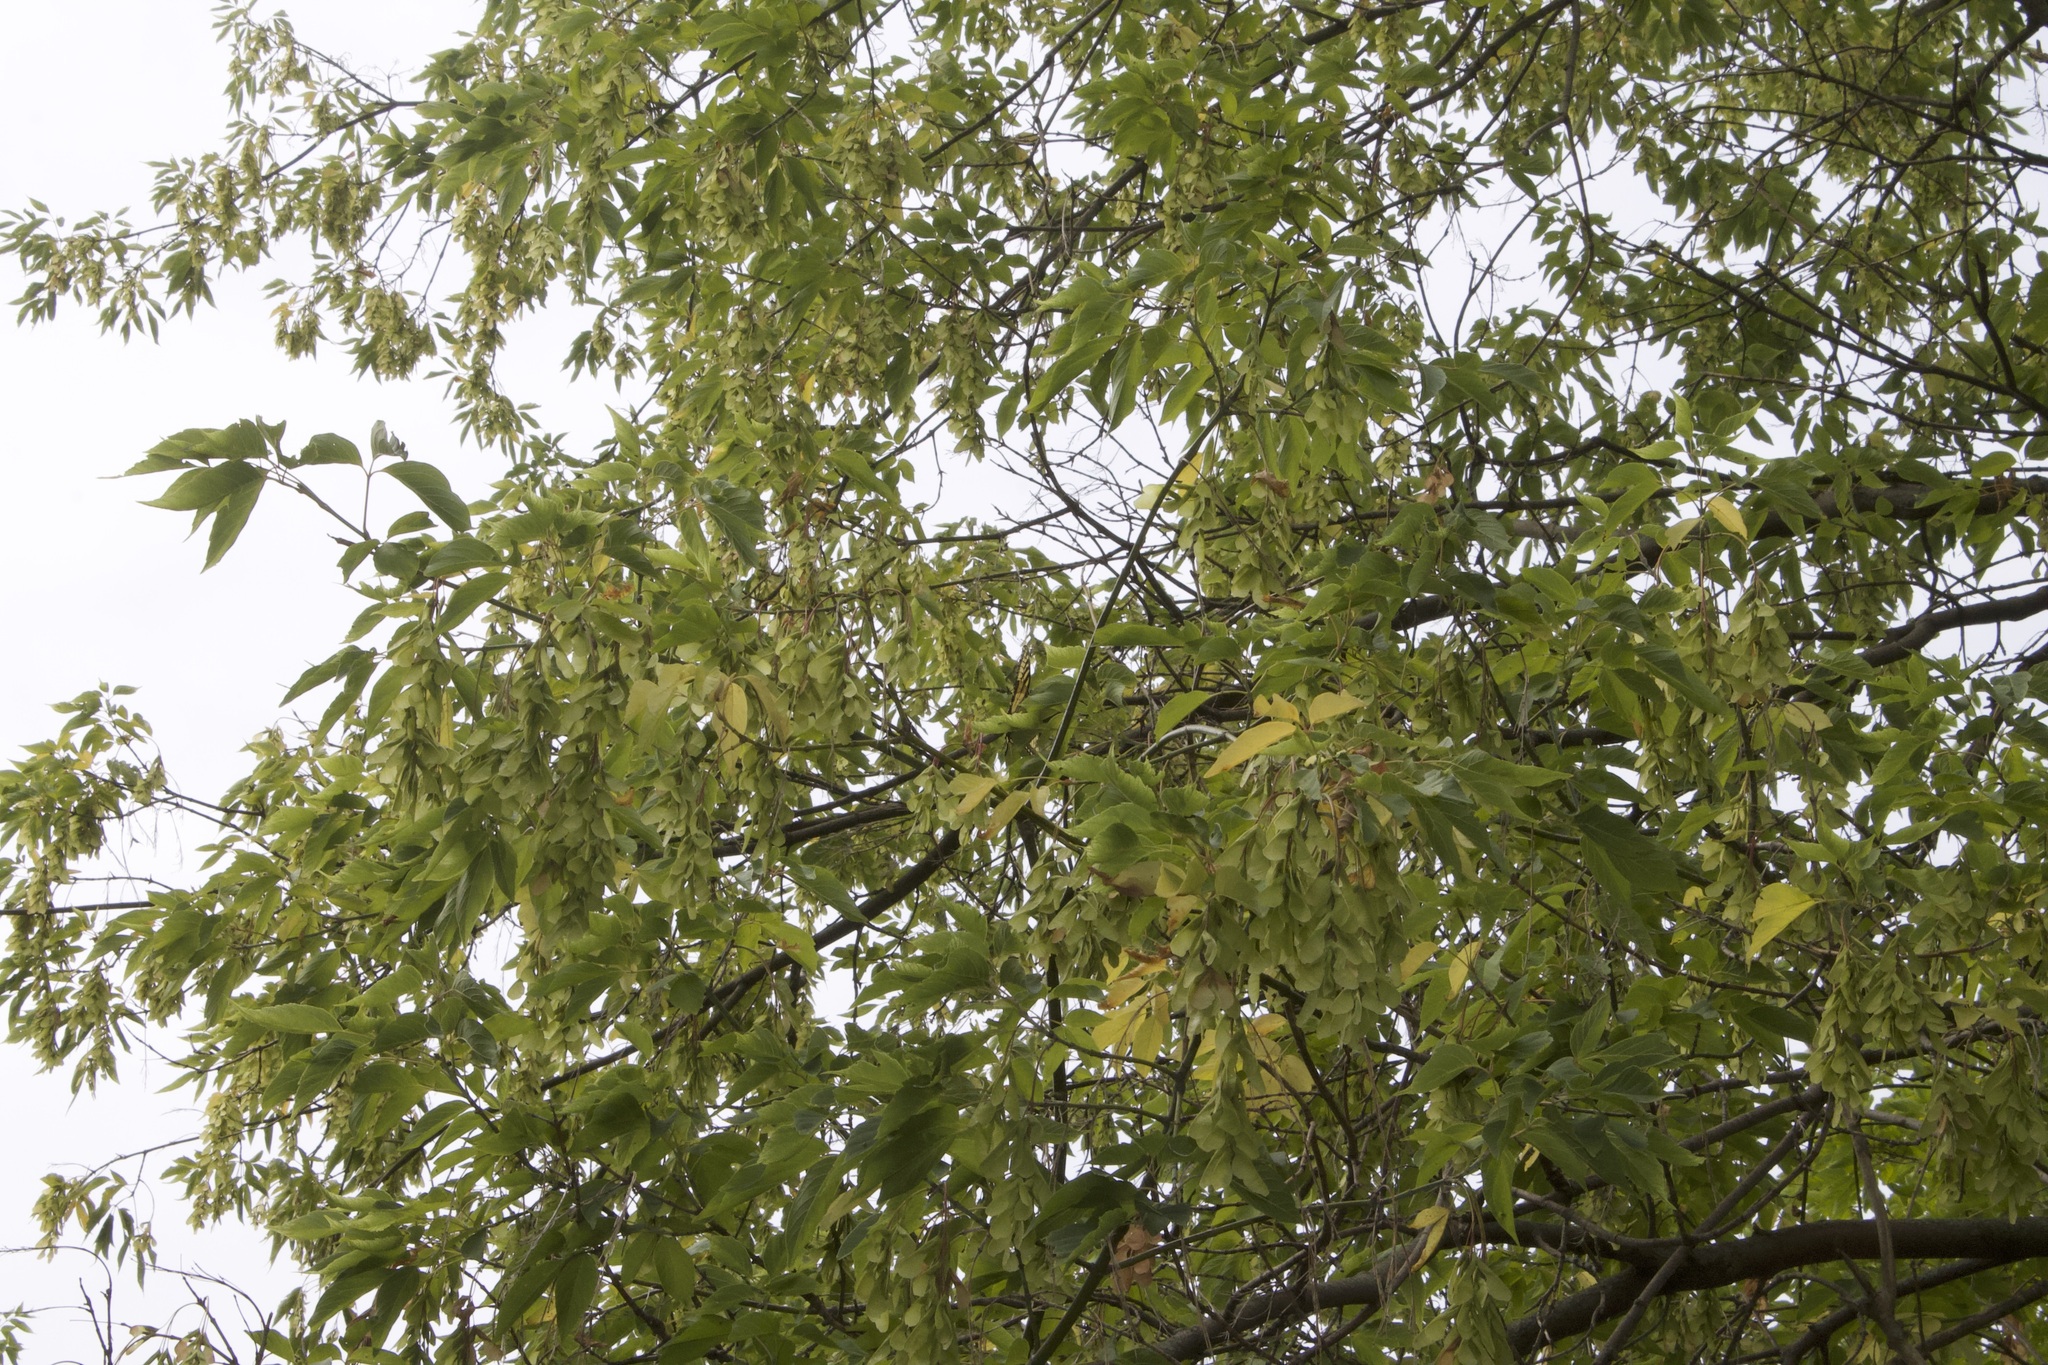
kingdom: Animalia
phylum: Arthropoda
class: Insecta
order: Lepidoptera
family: Papilionidae
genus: Papilio
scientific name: Papilio glaucus
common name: Tiger swallowtail
